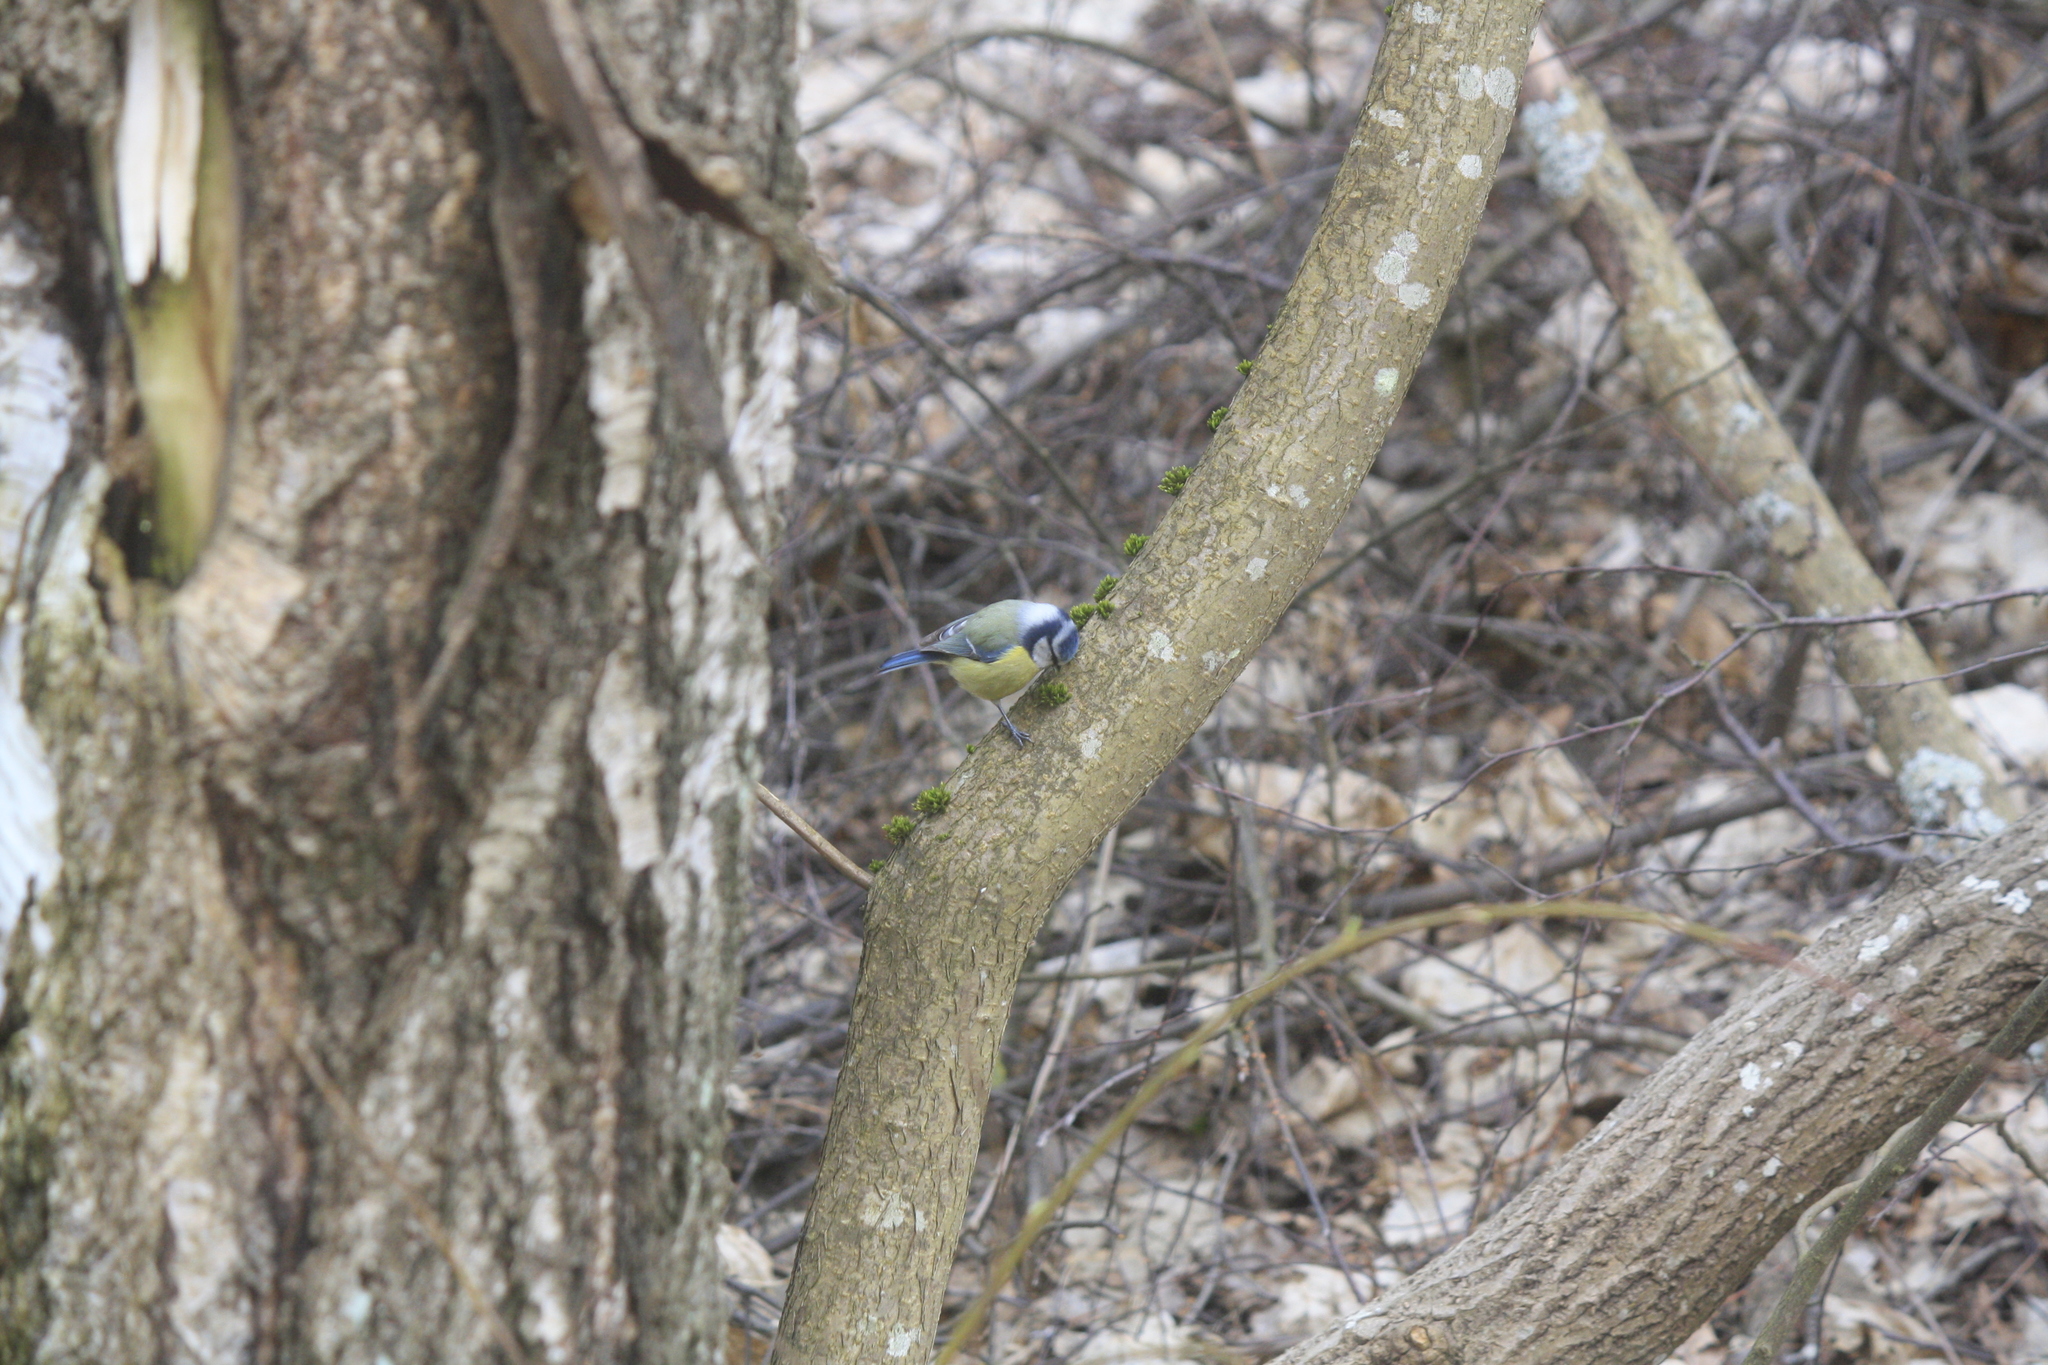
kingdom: Animalia
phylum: Chordata
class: Aves
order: Passeriformes
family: Paridae
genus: Cyanistes
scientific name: Cyanistes caeruleus
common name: Eurasian blue tit
